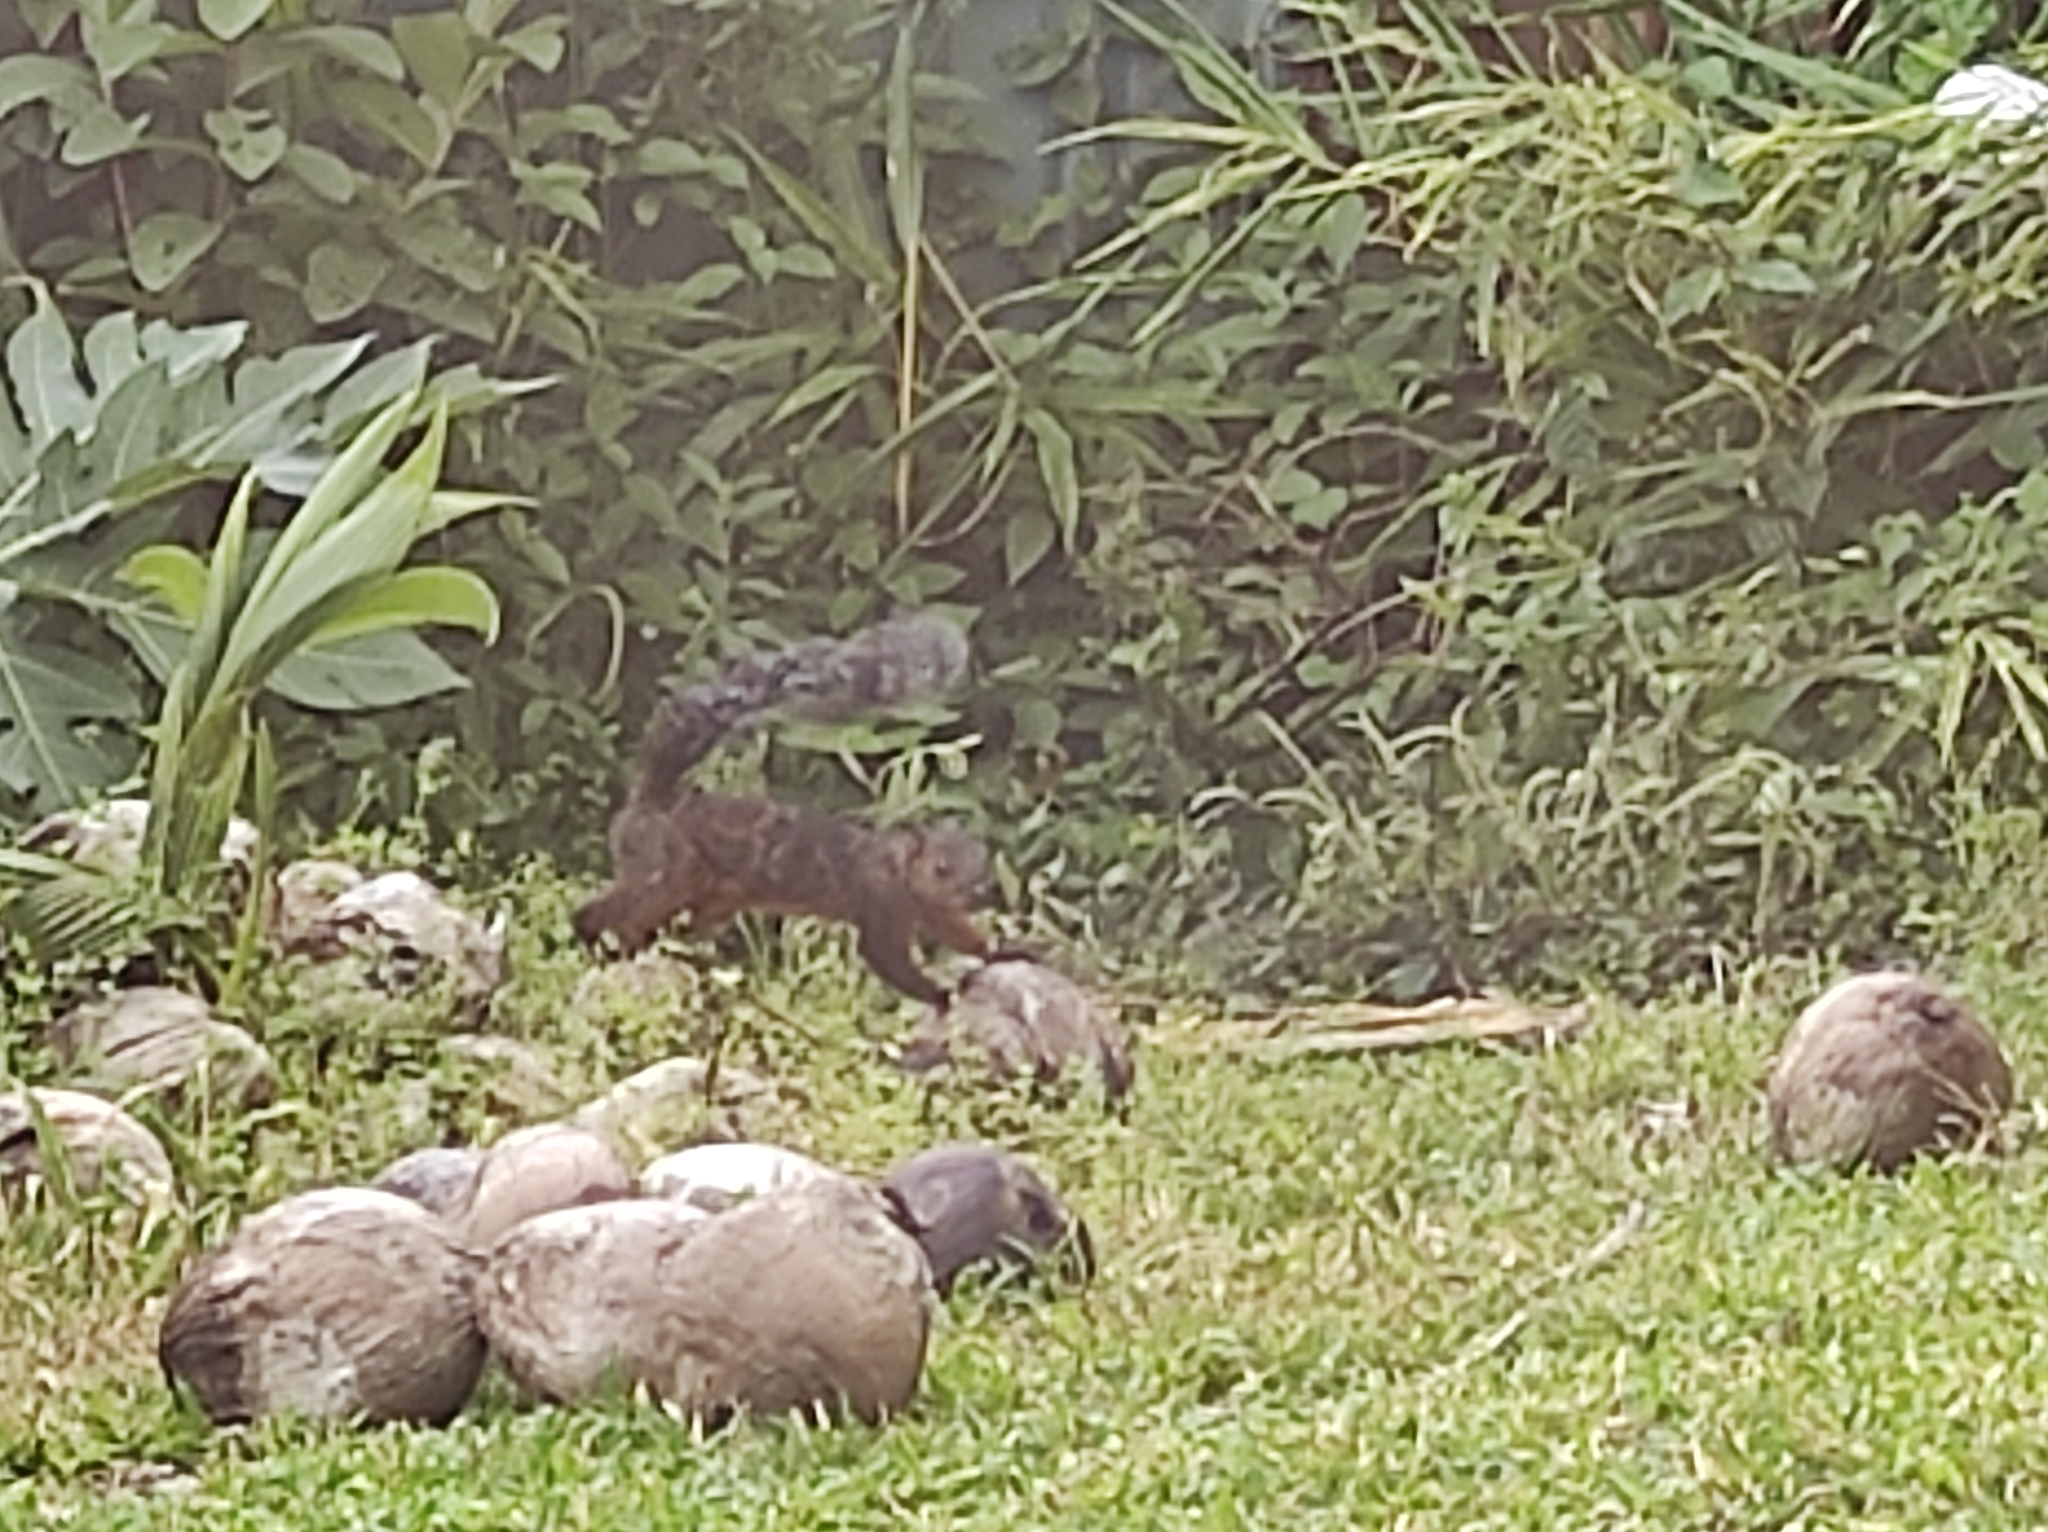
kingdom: Animalia
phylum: Chordata
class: Mammalia
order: Rodentia
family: Sciuridae
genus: Sciurus
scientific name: Sciurus variegatoides
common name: Variegated squirrel
